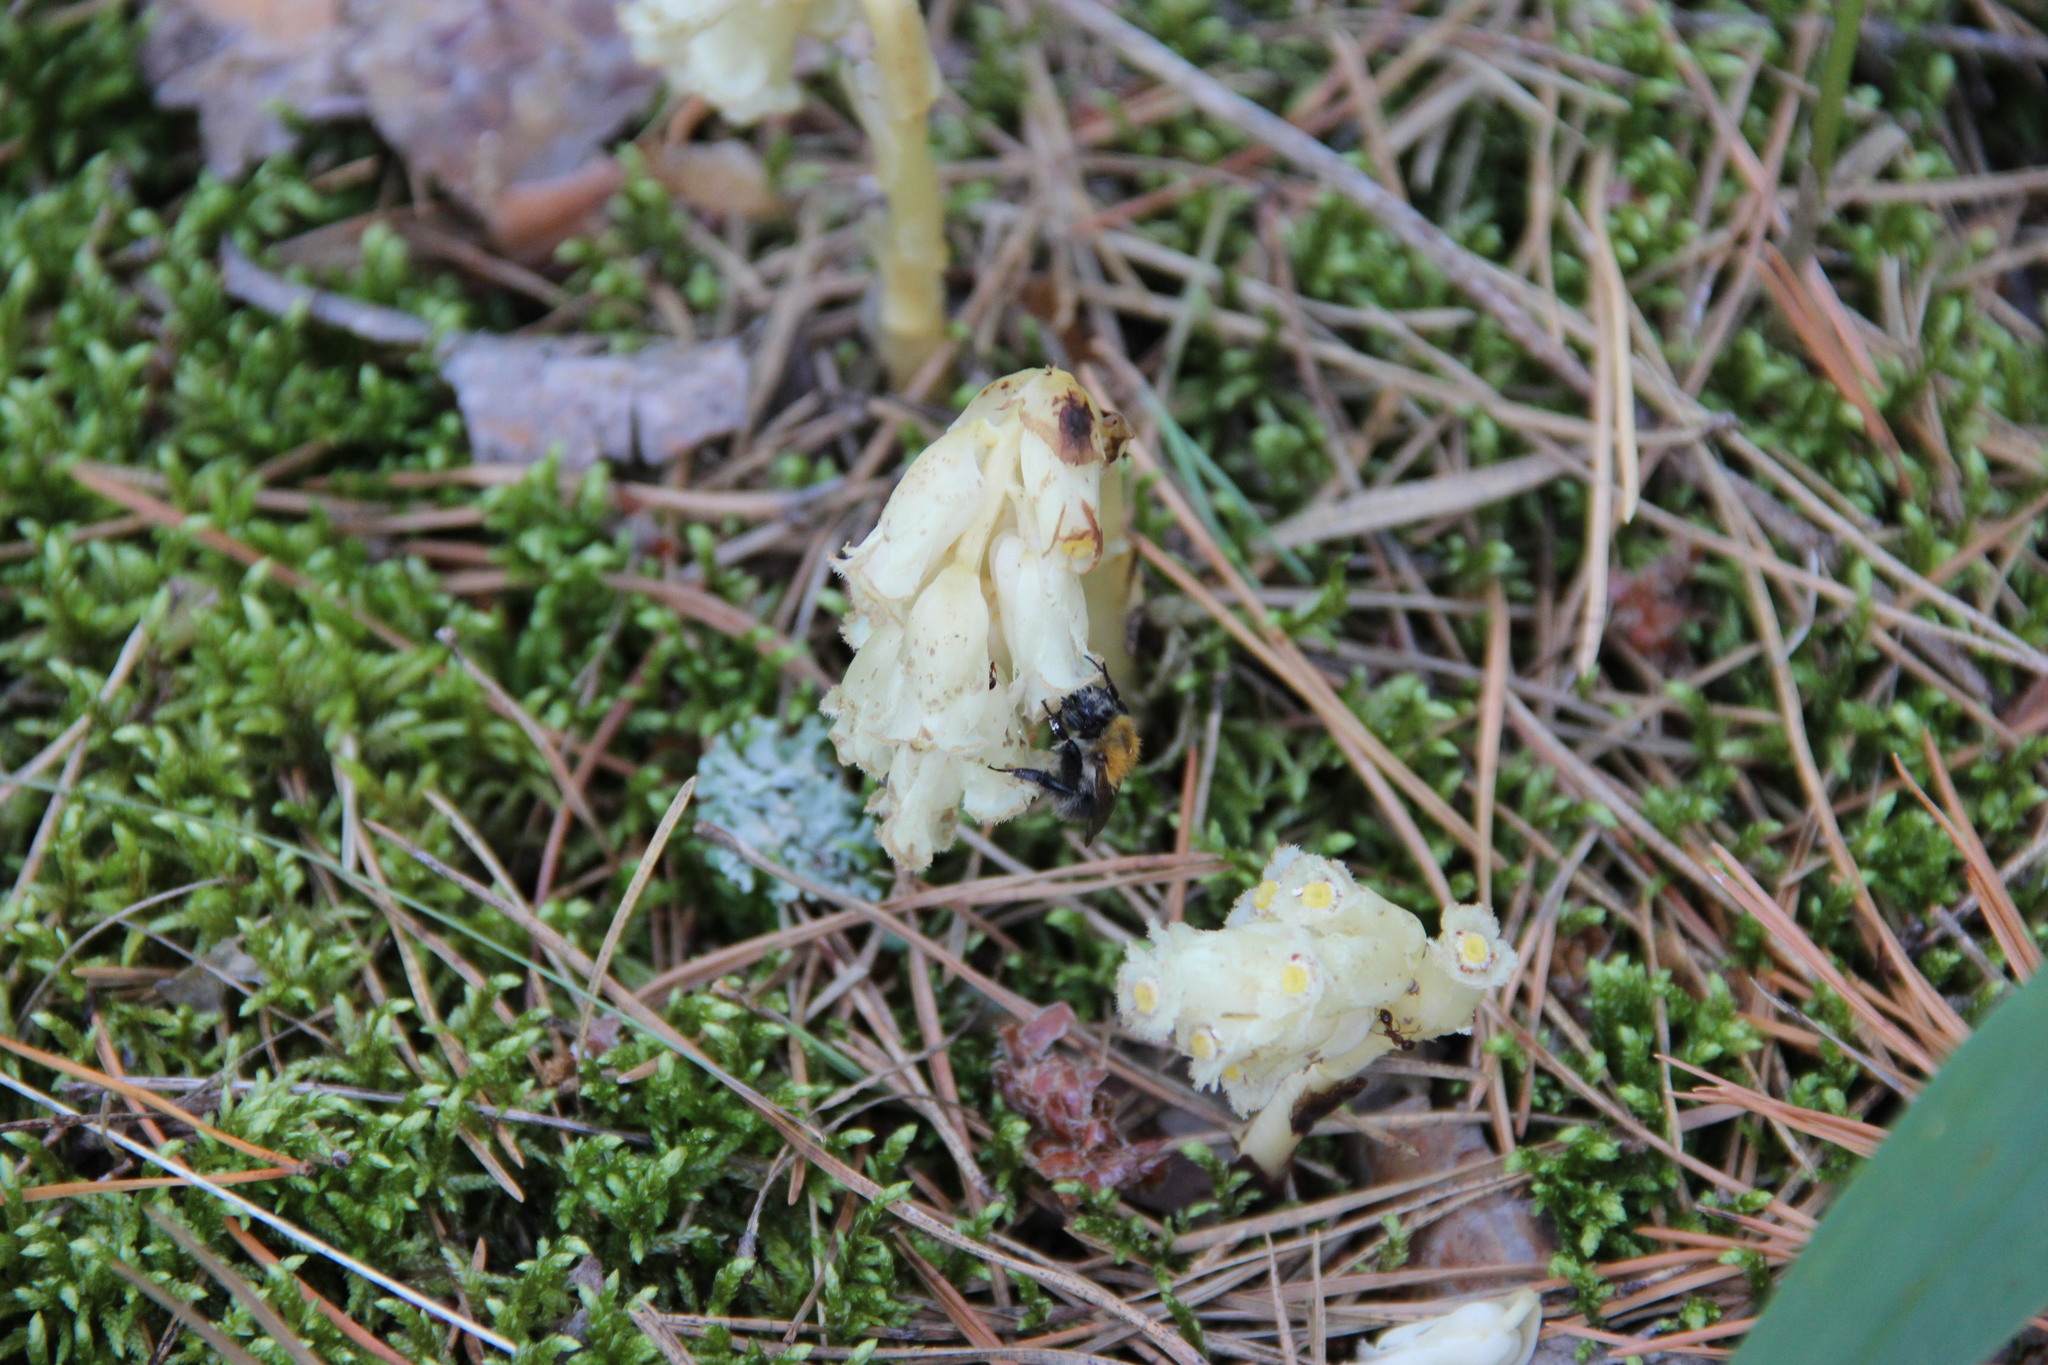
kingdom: Plantae
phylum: Tracheophyta
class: Magnoliopsida
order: Ericales
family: Ericaceae
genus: Hypopitys
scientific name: Hypopitys monotropa
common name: Yellow bird's-nest
